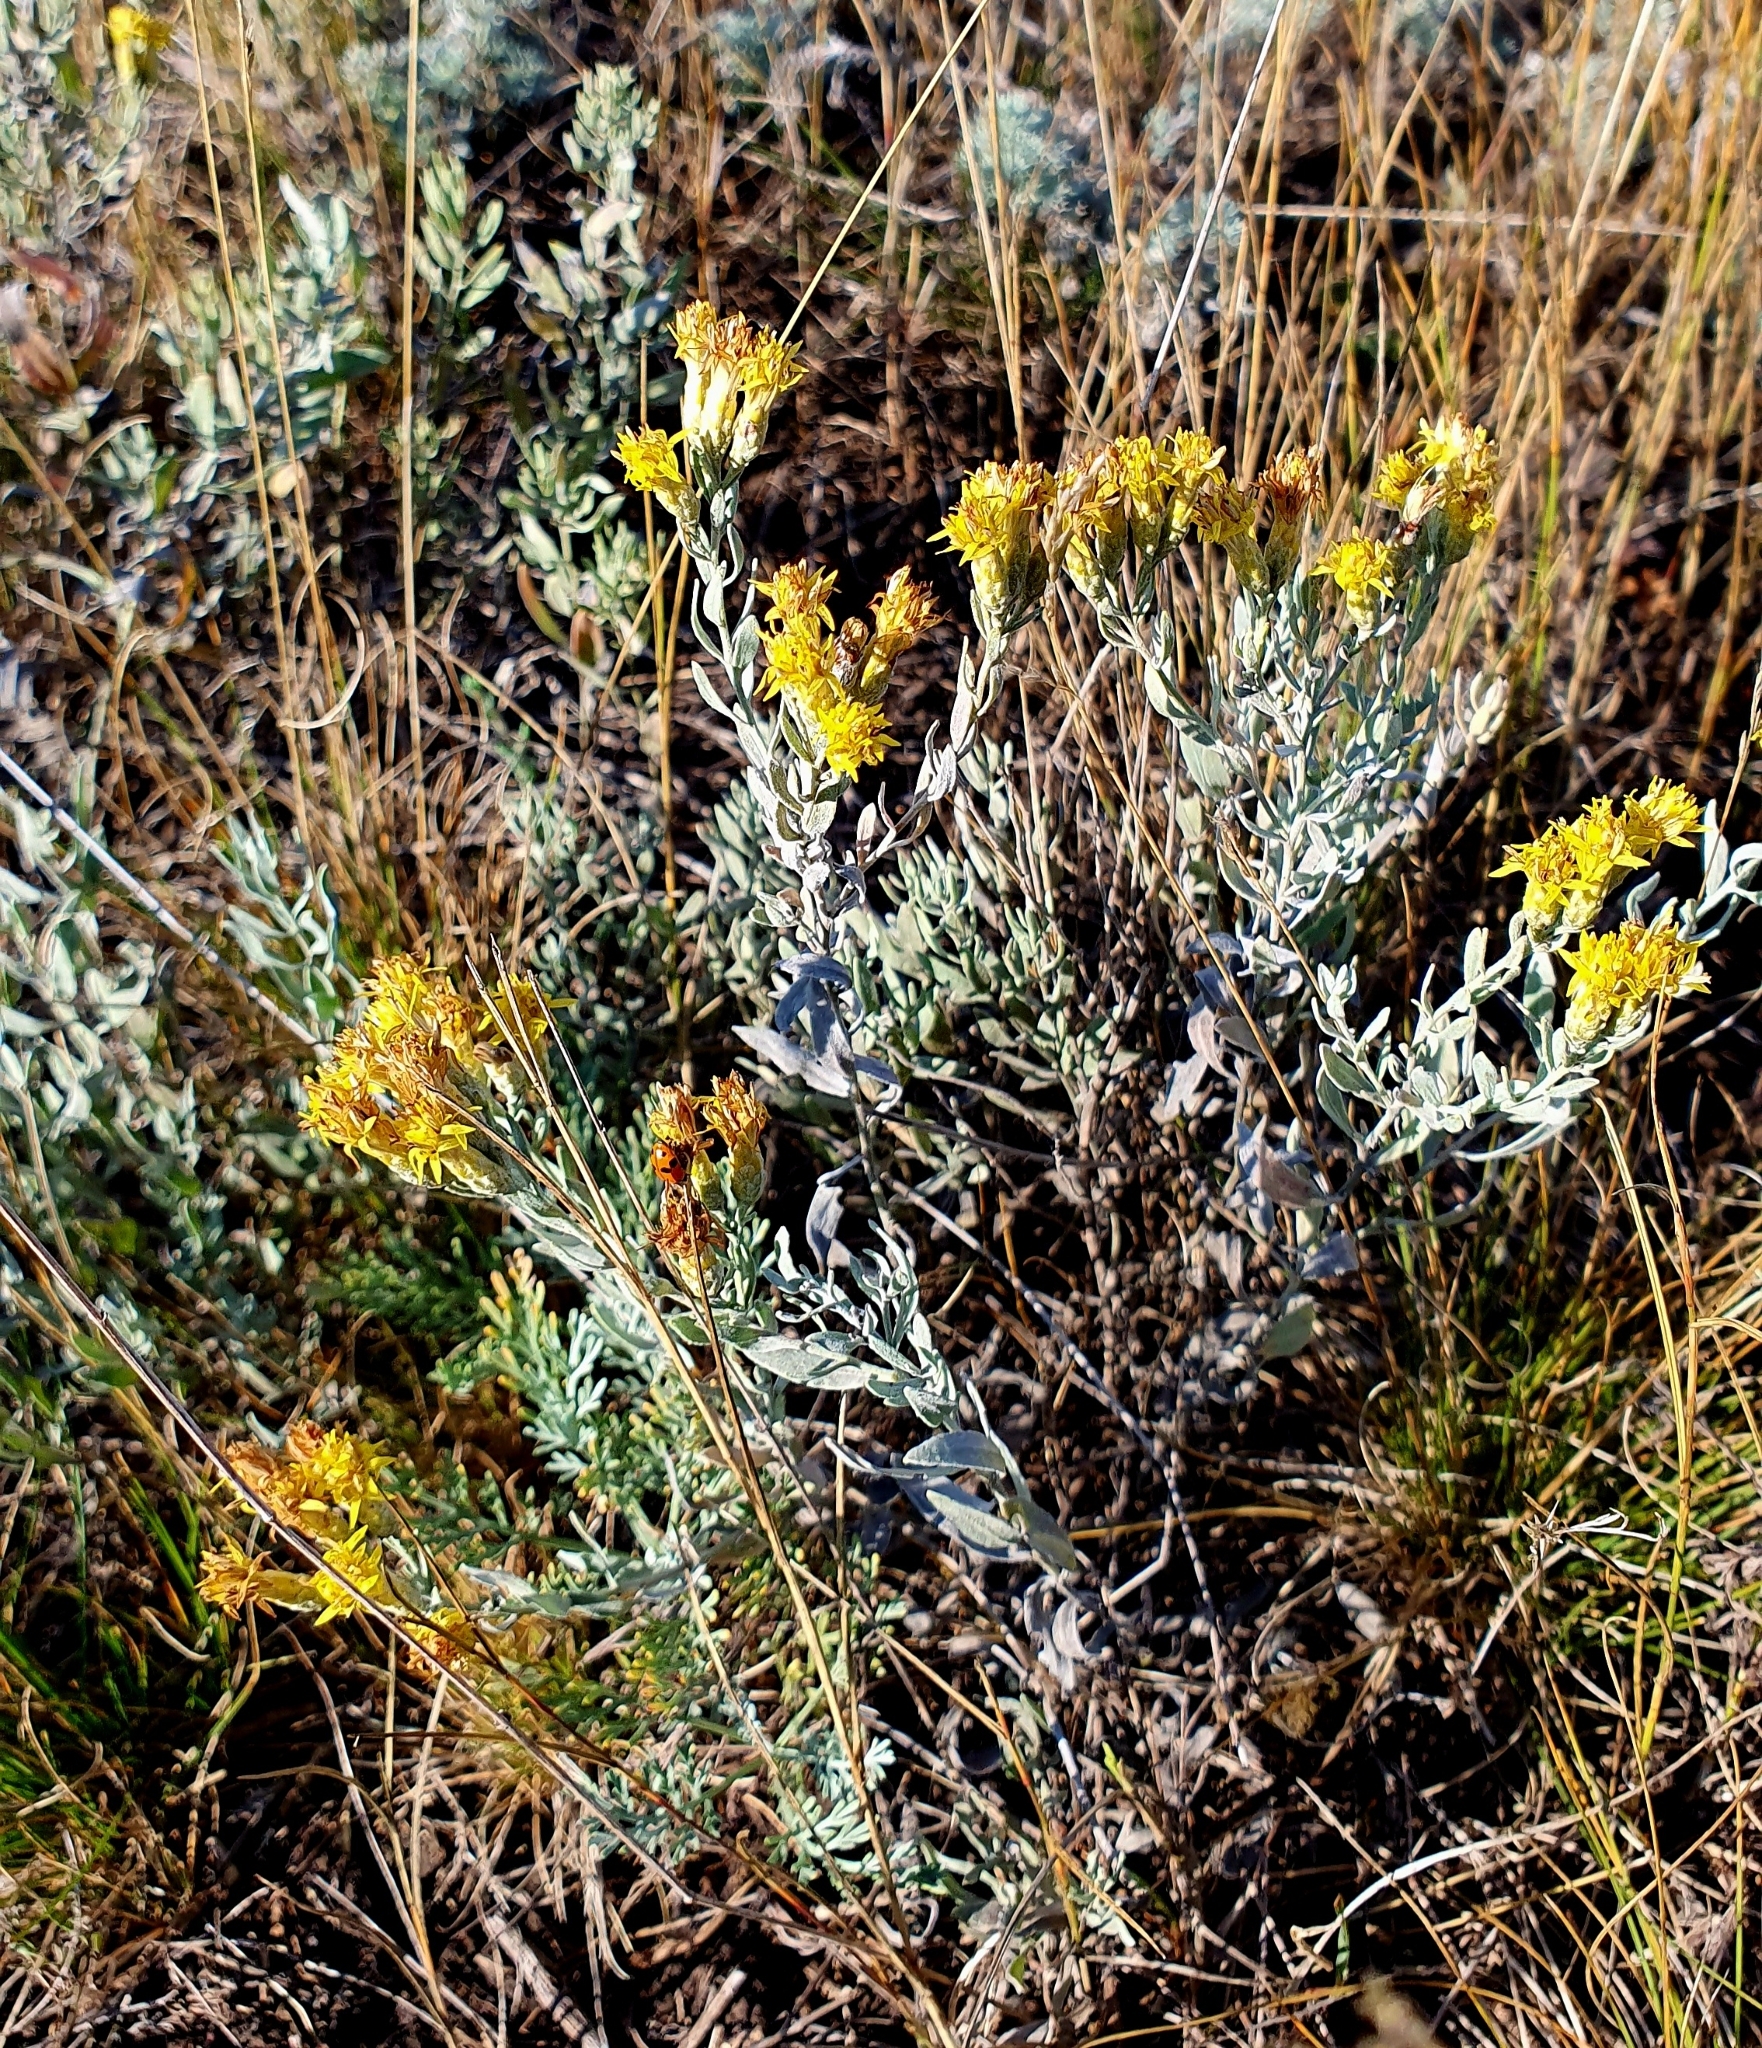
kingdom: Plantae
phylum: Tracheophyta
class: Magnoliopsida
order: Asterales
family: Asteraceae
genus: Galatella
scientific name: Galatella villosa
